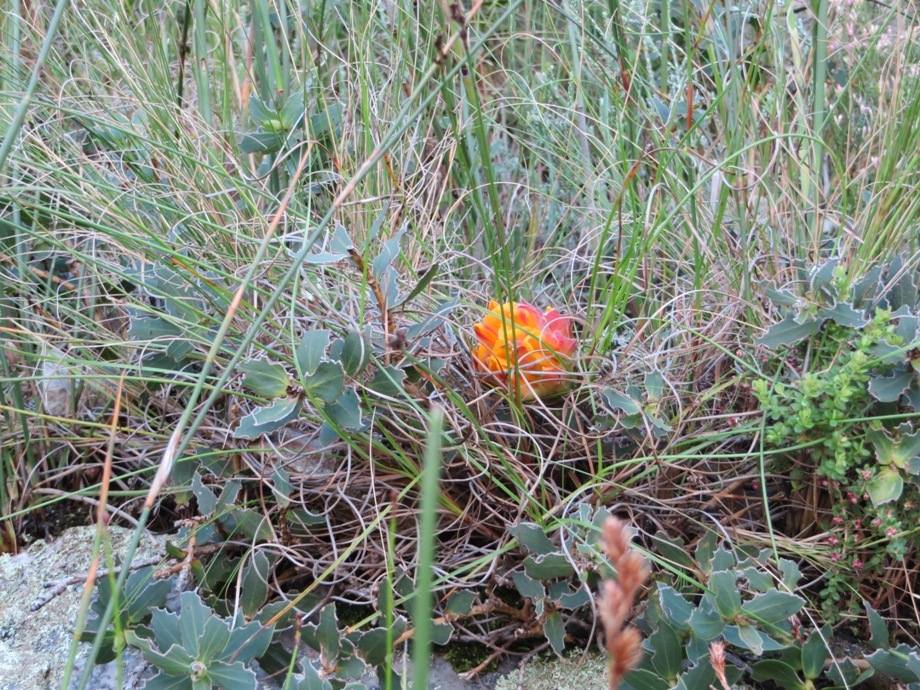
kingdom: Plantae
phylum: Tracheophyta
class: Magnoliopsida
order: Fabales
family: Fabaceae
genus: Liparia
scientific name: Liparia splendens
